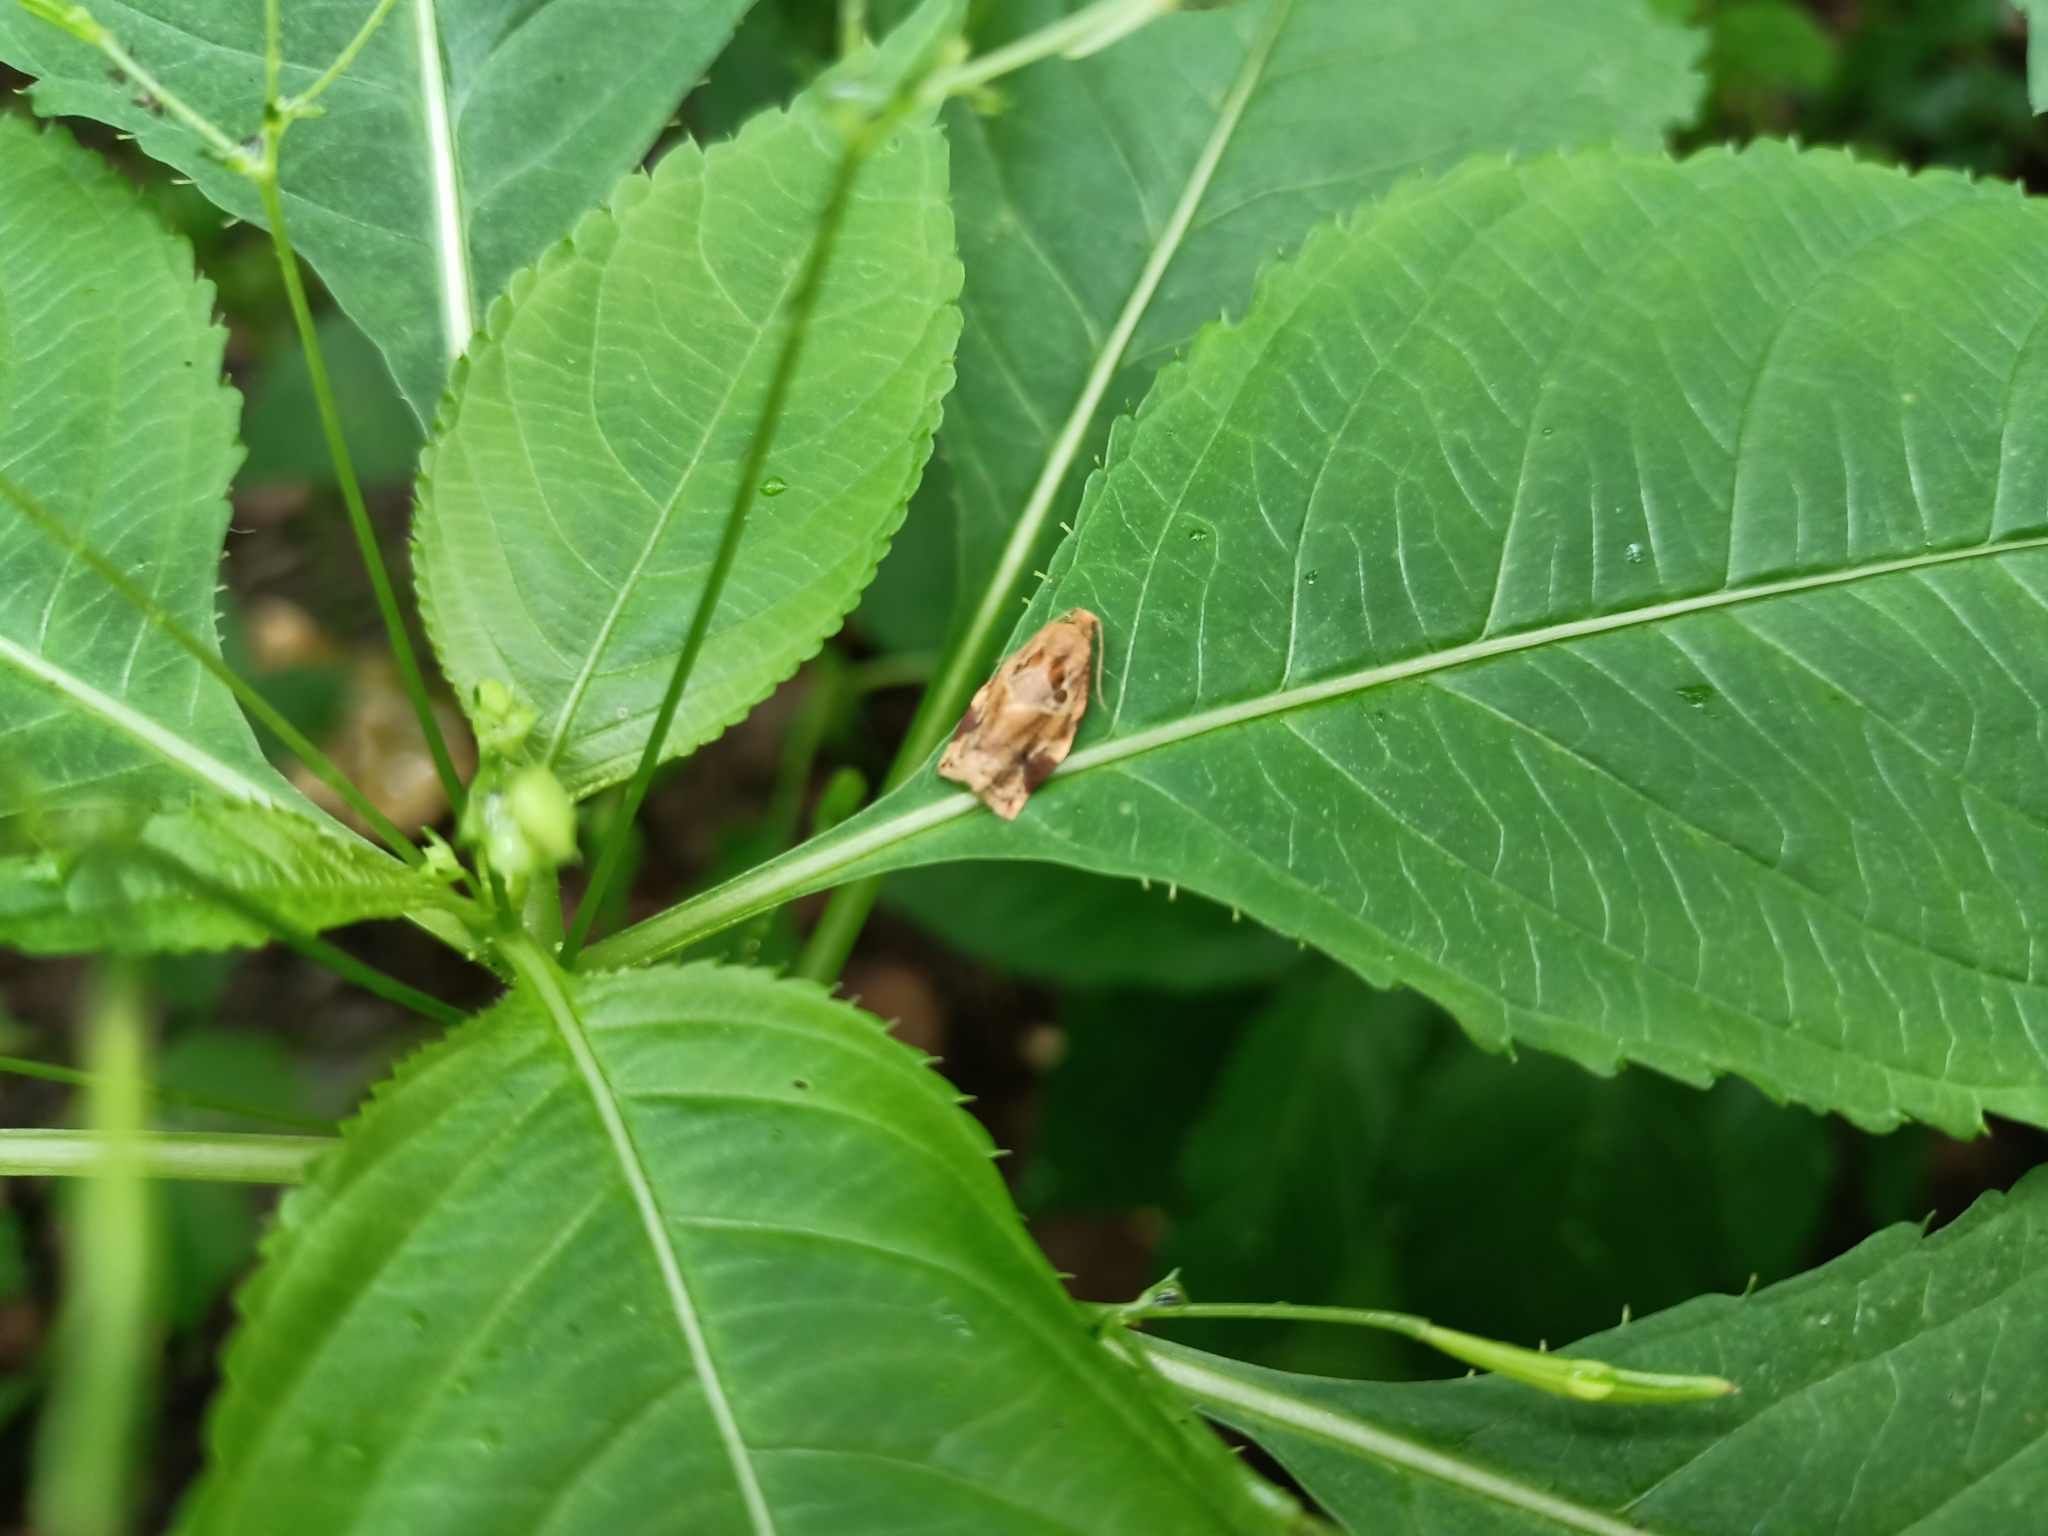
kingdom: Animalia
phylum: Arthropoda
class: Insecta
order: Lepidoptera
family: Tortricidae
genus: Archips
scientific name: Archips xylosteana
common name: Variegated golden tortrix
